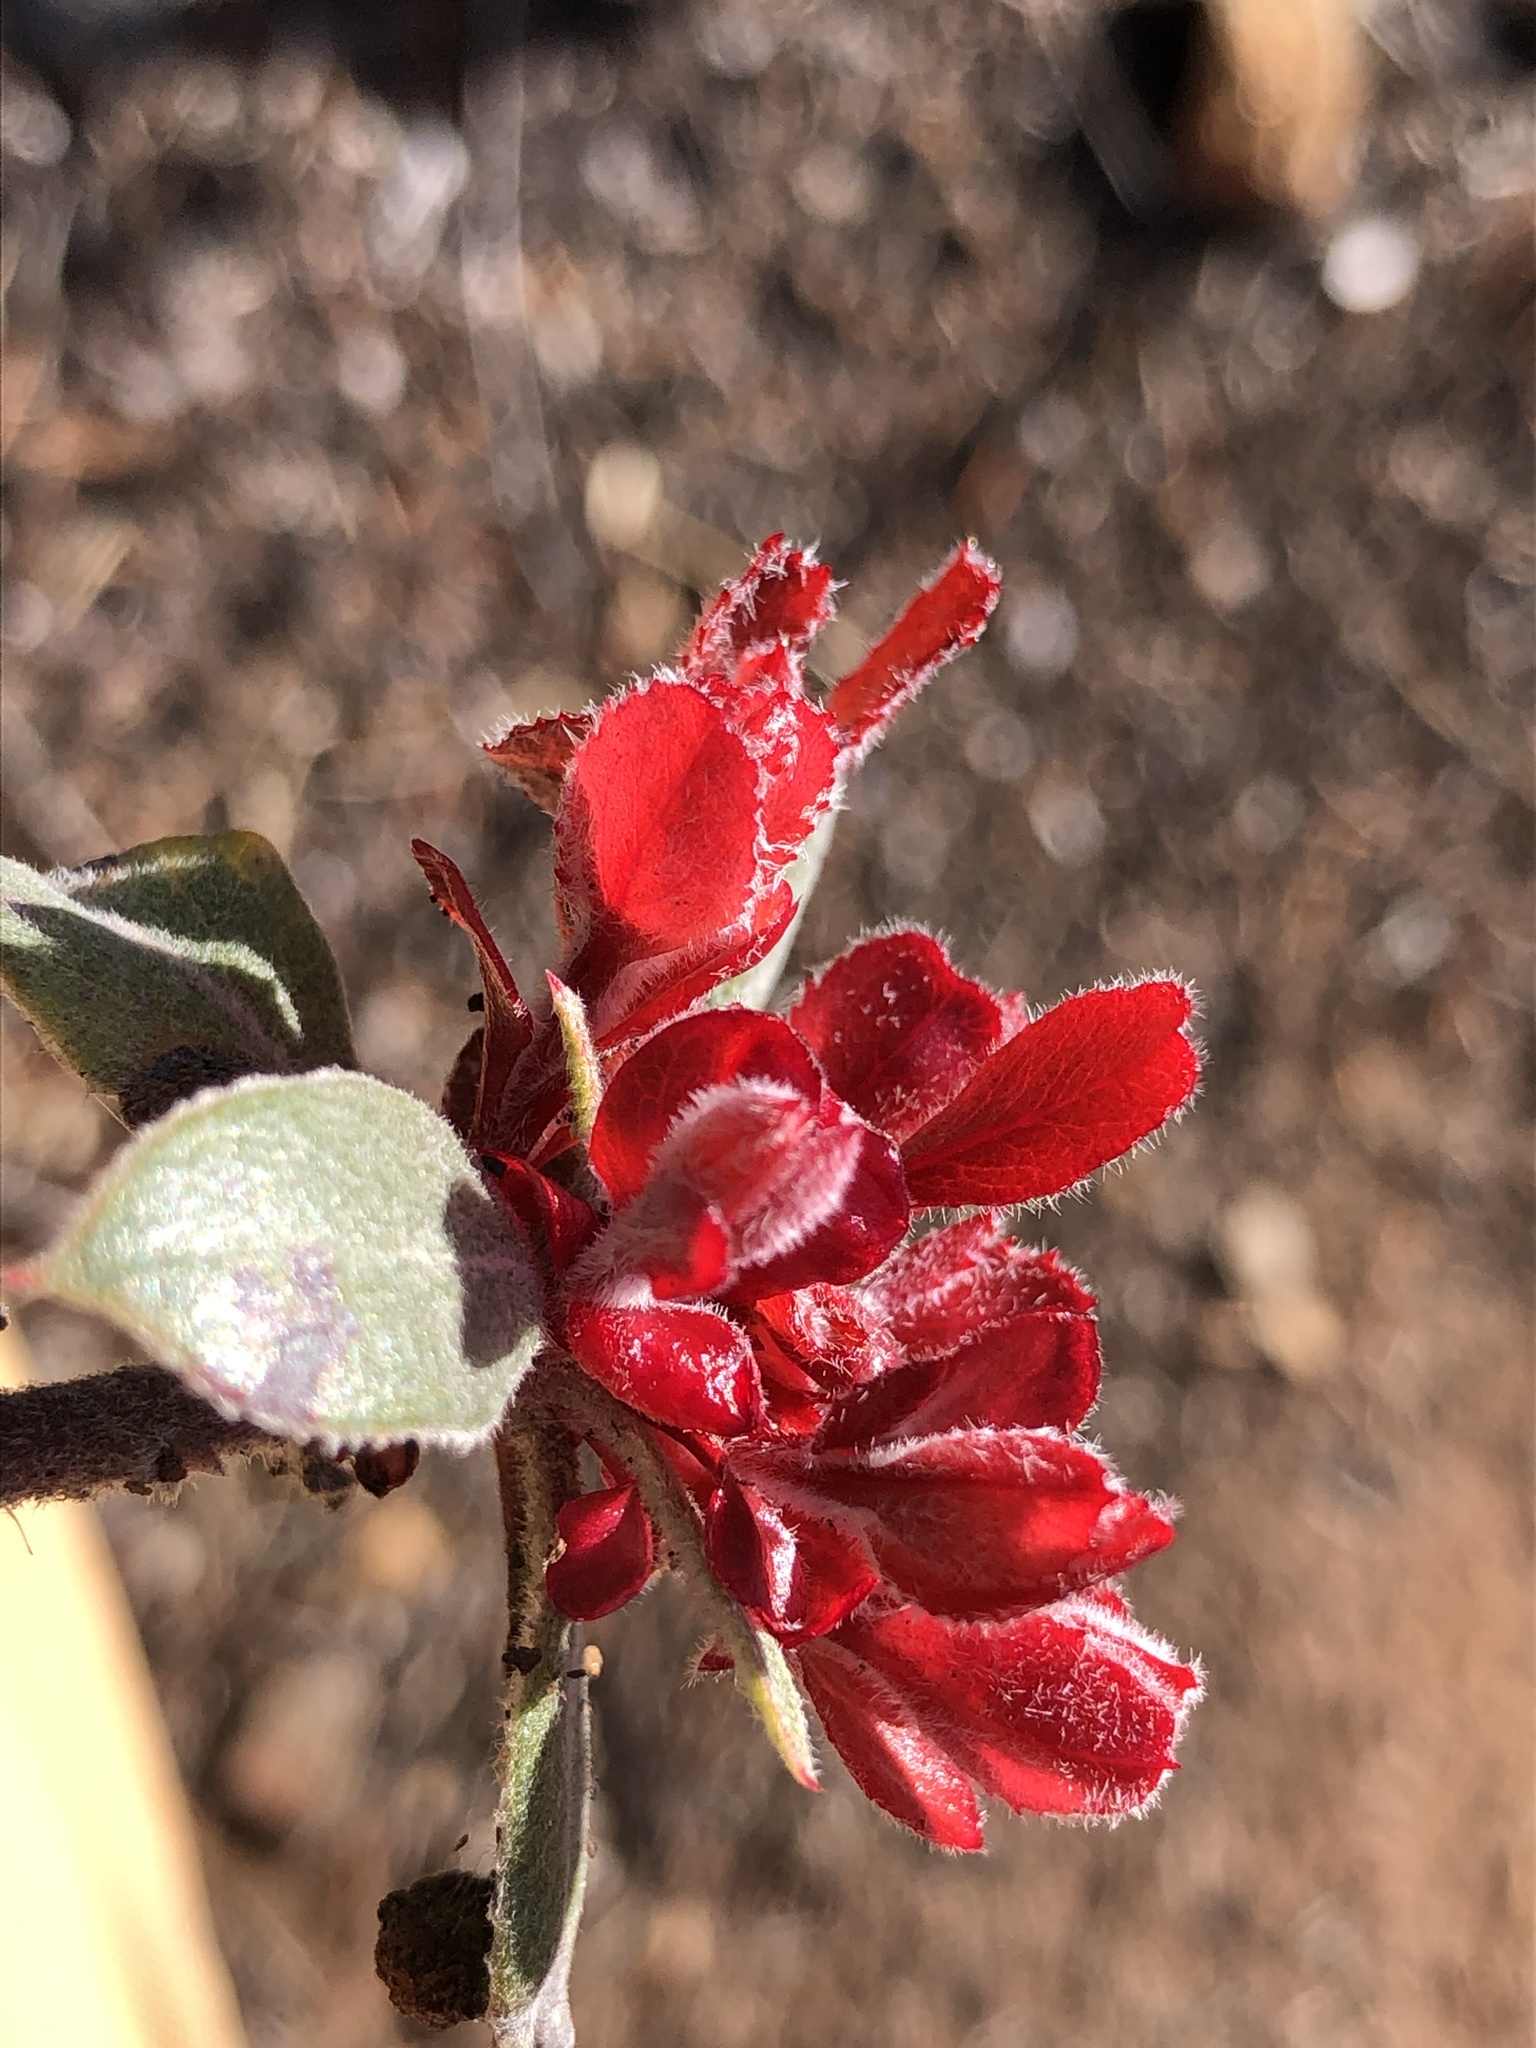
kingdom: Fungi
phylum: Basidiomycota
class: Exobasidiomycetes
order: Exobasidiales
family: Exobasidiaceae
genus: Exobasidium
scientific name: Exobasidium
